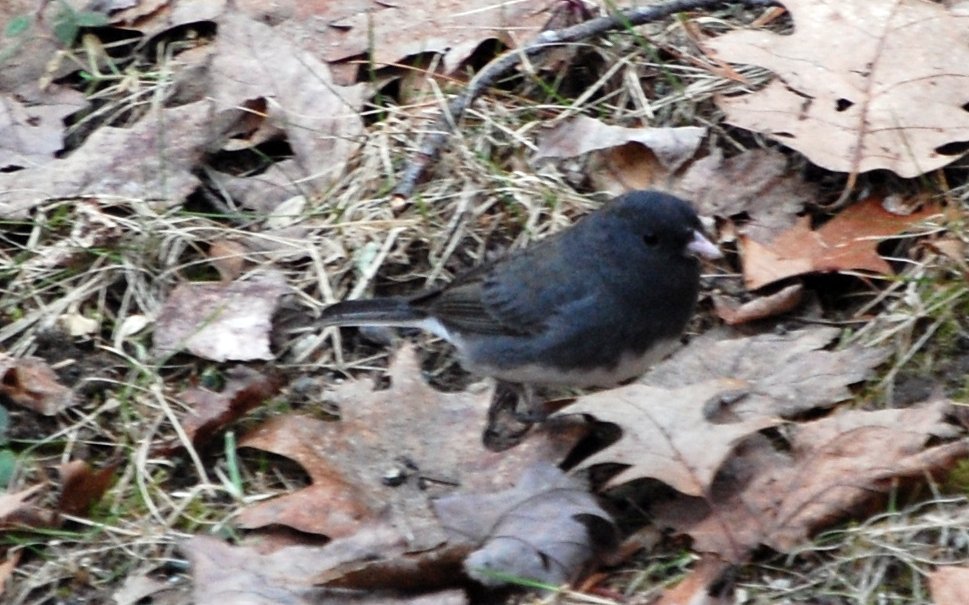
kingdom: Animalia
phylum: Chordata
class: Aves
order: Passeriformes
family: Passerellidae
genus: Junco
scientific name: Junco hyemalis
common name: Dark-eyed junco
